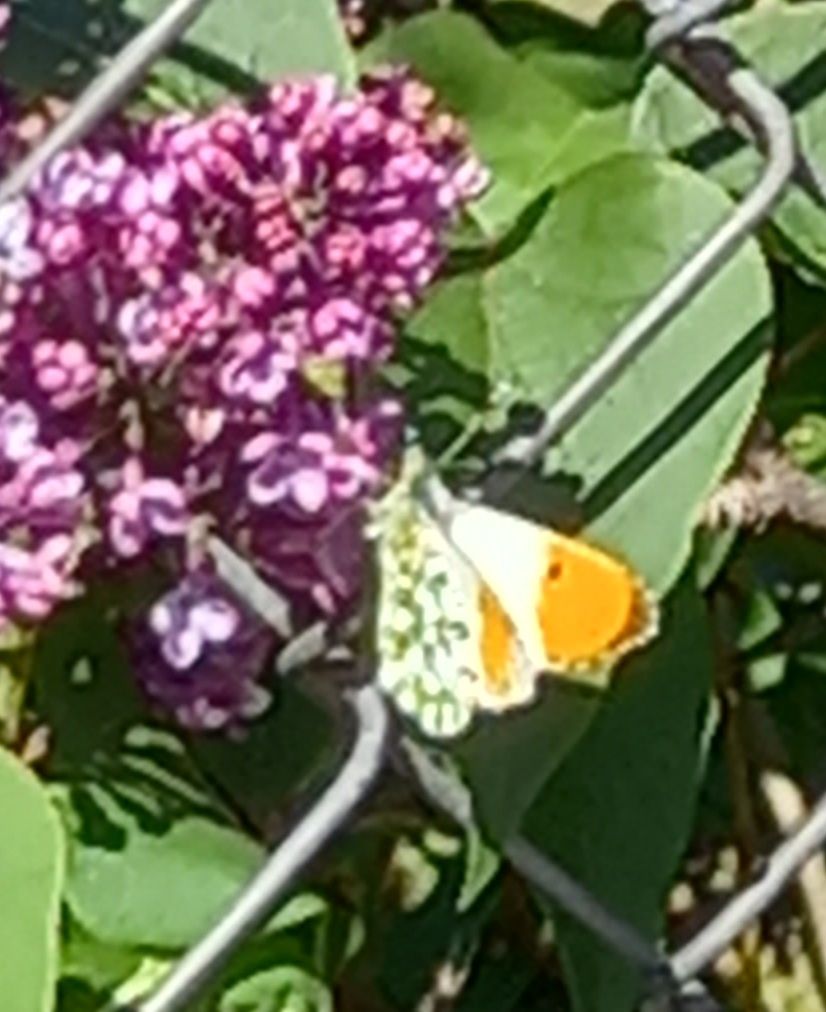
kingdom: Animalia
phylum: Arthropoda
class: Insecta
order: Lepidoptera
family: Pieridae
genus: Anthocharis
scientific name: Anthocharis cardamines
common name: Orange-tip
